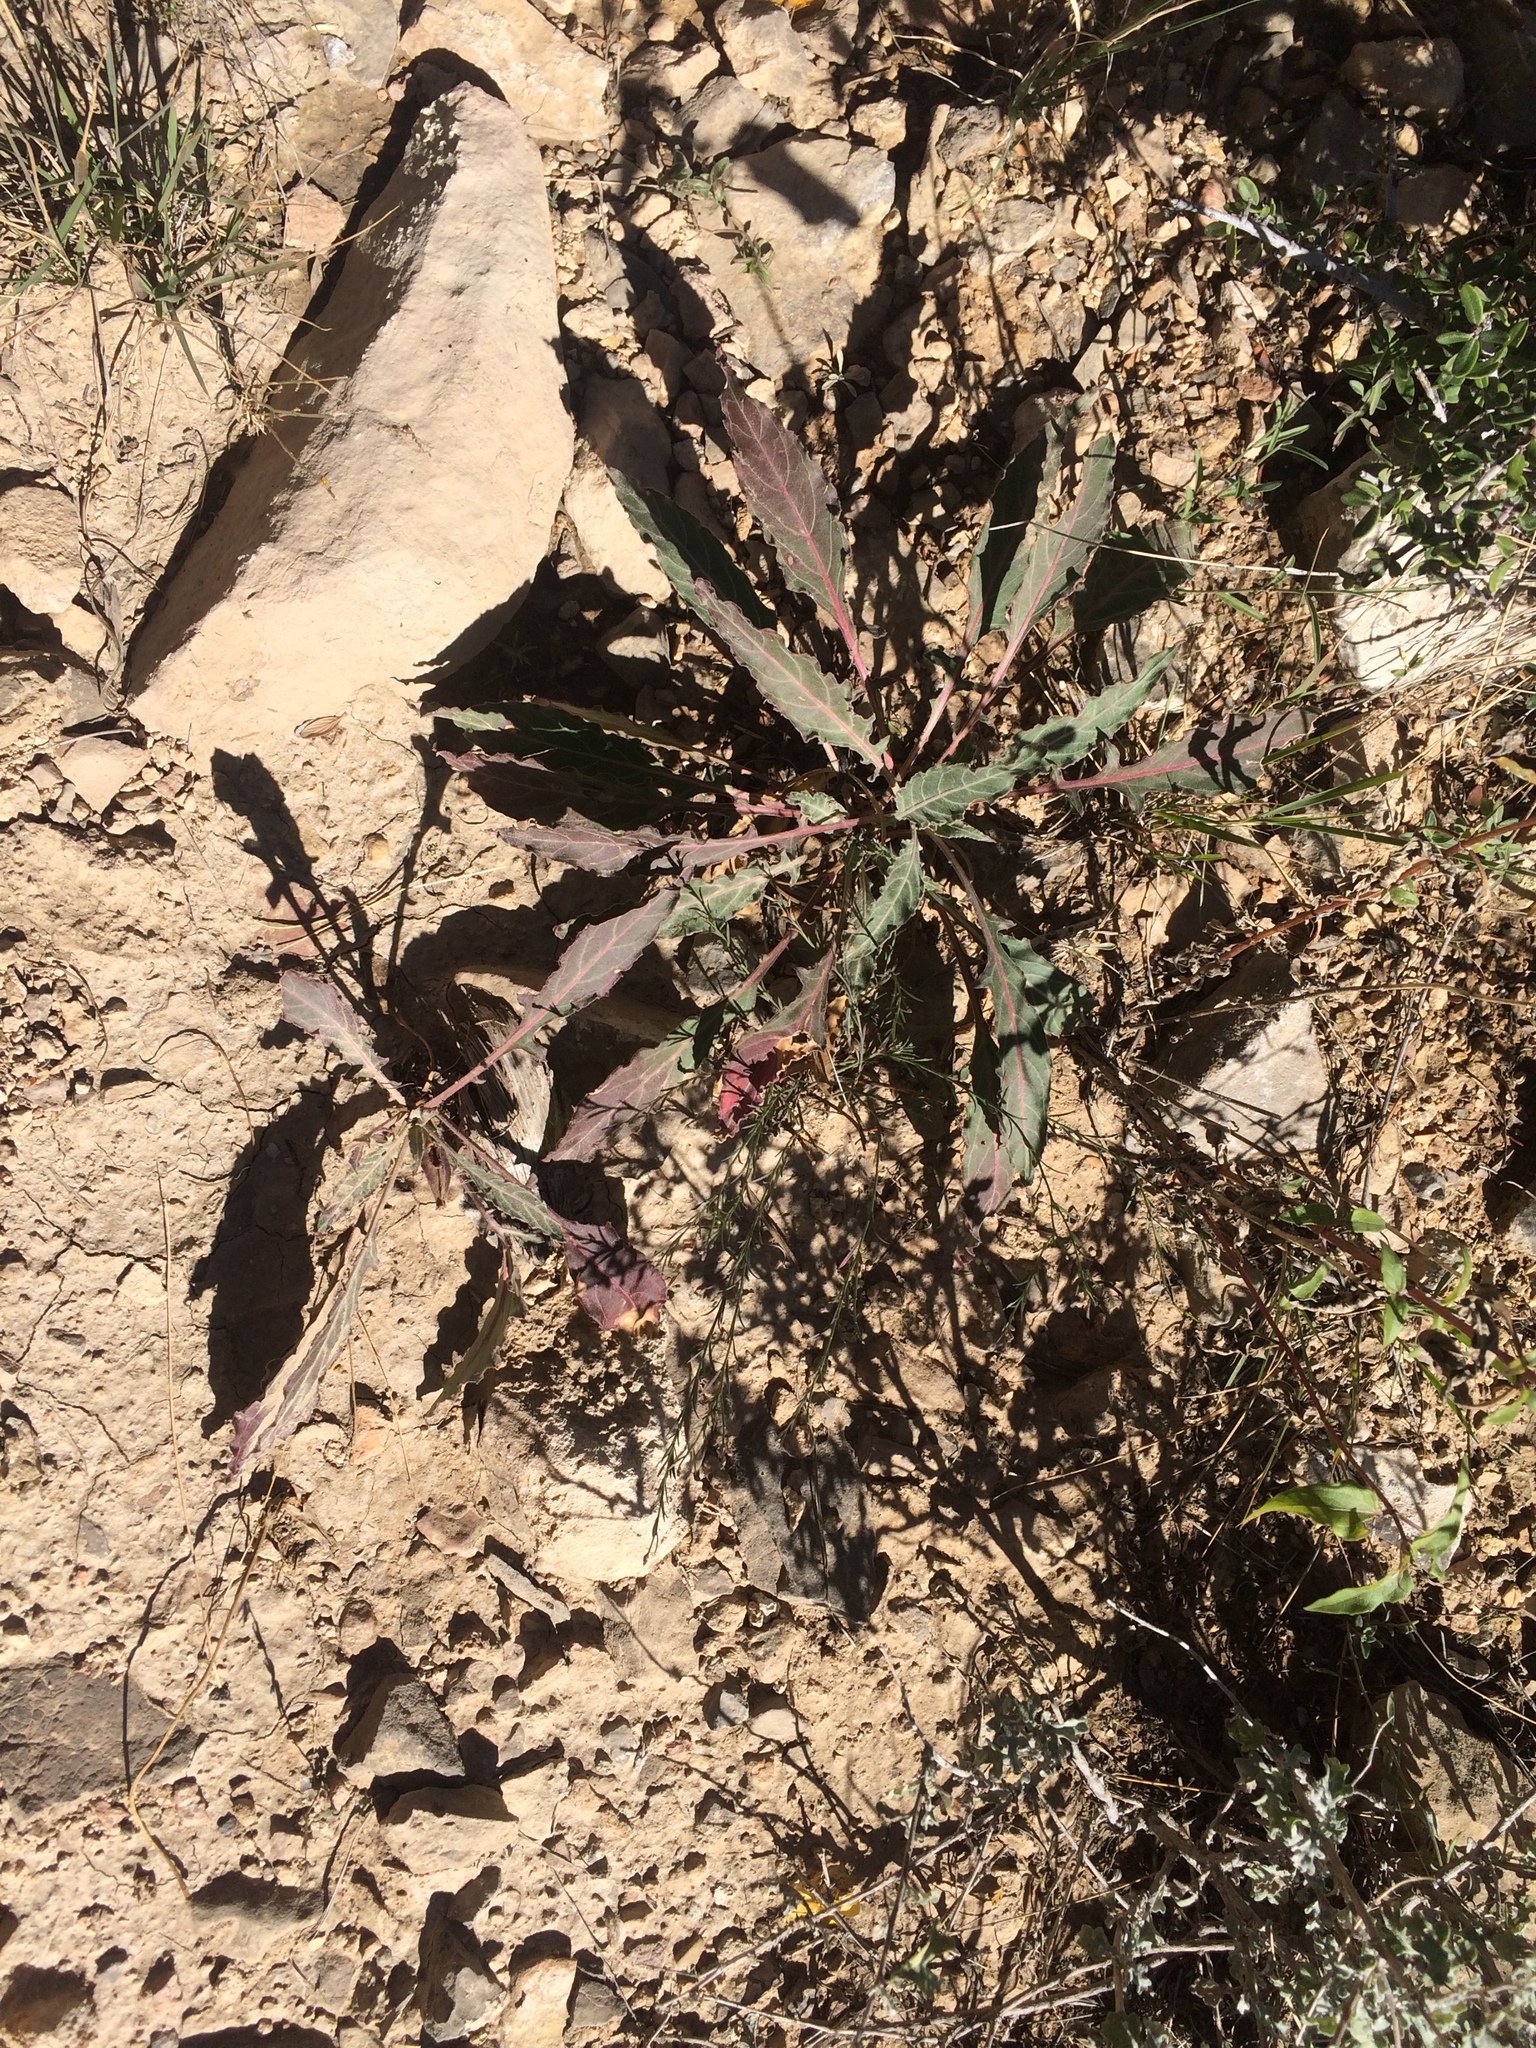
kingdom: Plantae
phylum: Tracheophyta
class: Magnoliopsida
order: Myrtales
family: Onagraceae
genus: Oenothera
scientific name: Oenothera brachycarpa
